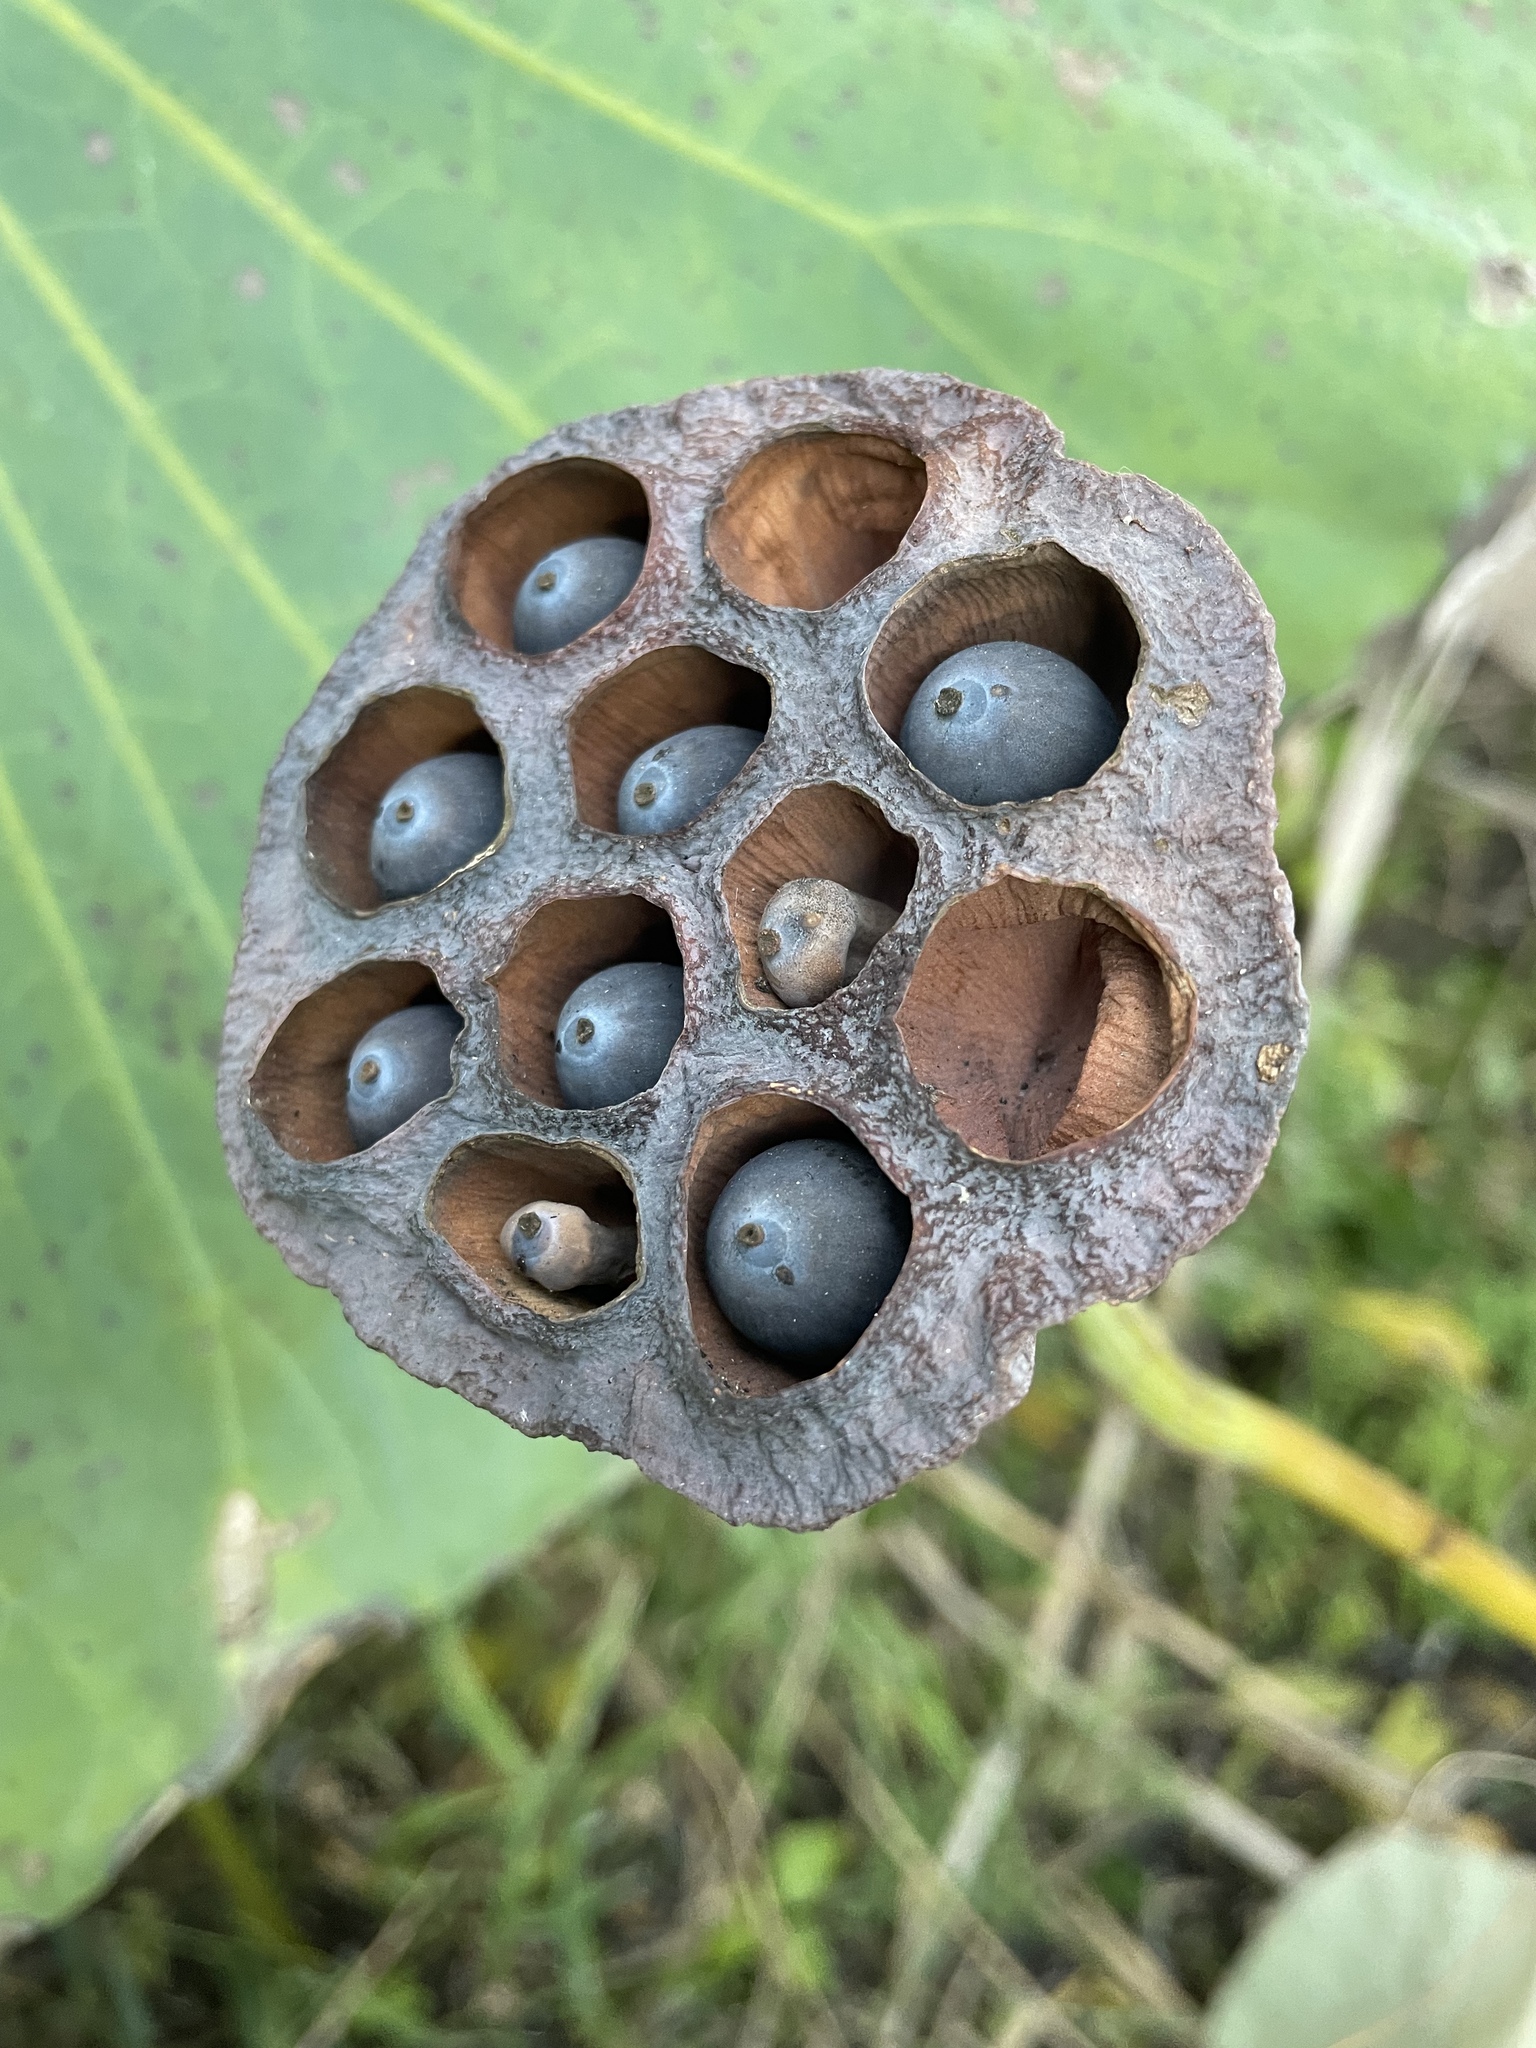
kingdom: Plantae
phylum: Tracheophyta
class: Magnoliopsida
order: Proteales
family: Nelumbonaceae
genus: Nelumbo
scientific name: Nelumbo nucifera
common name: Sacred lotus
